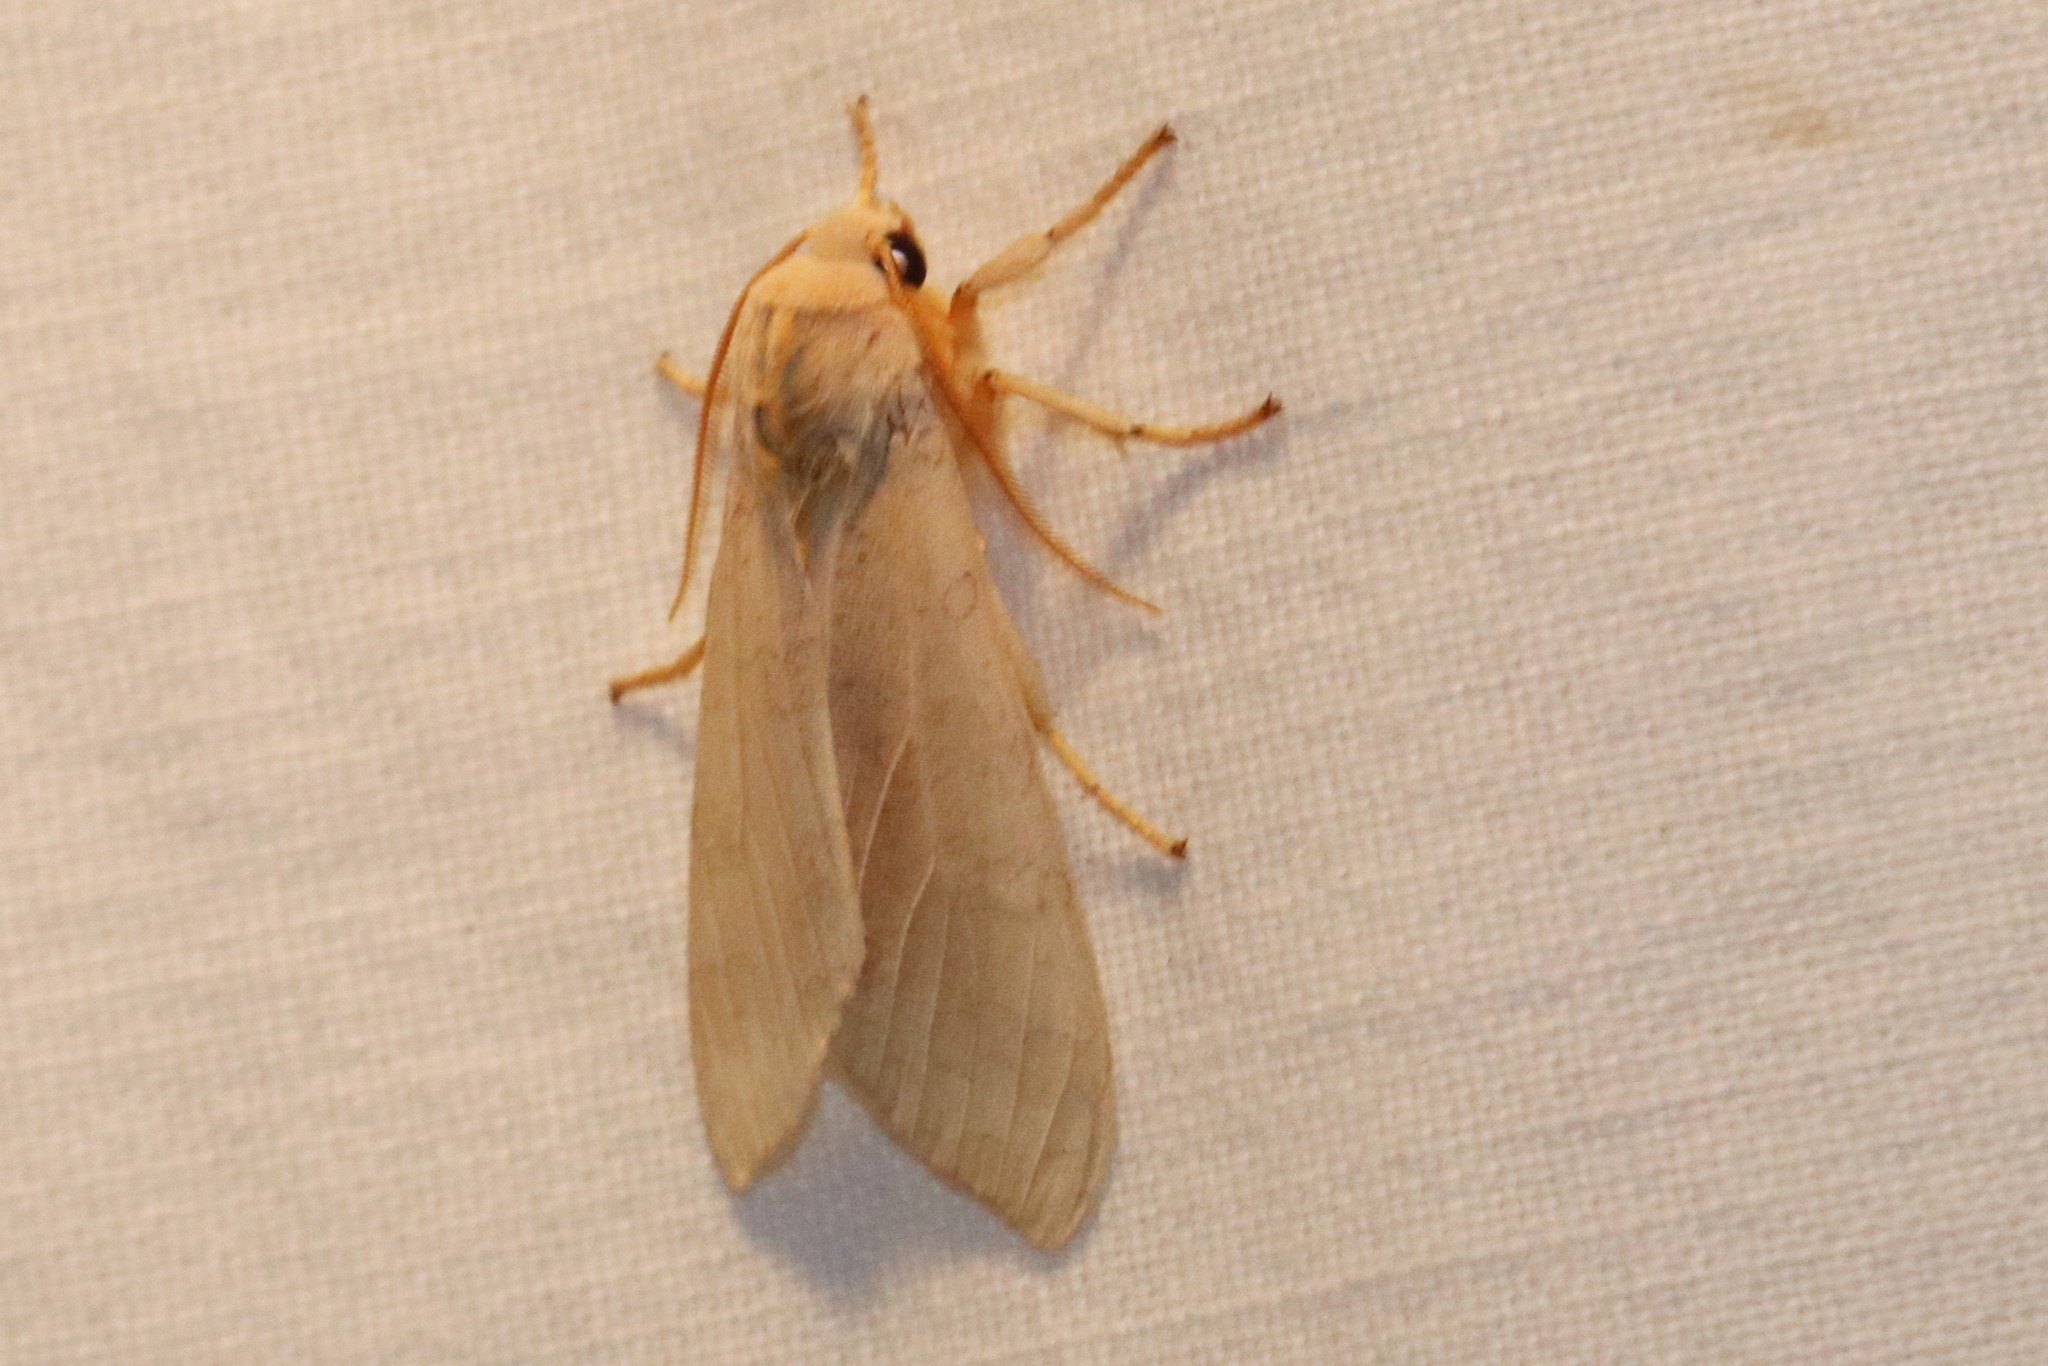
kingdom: Animalia
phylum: Arthropoda
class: Insecta
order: Lepidoptera
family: Erebidae
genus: Halysidota
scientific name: Halysidota tessellaris
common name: Banded tussock moth
